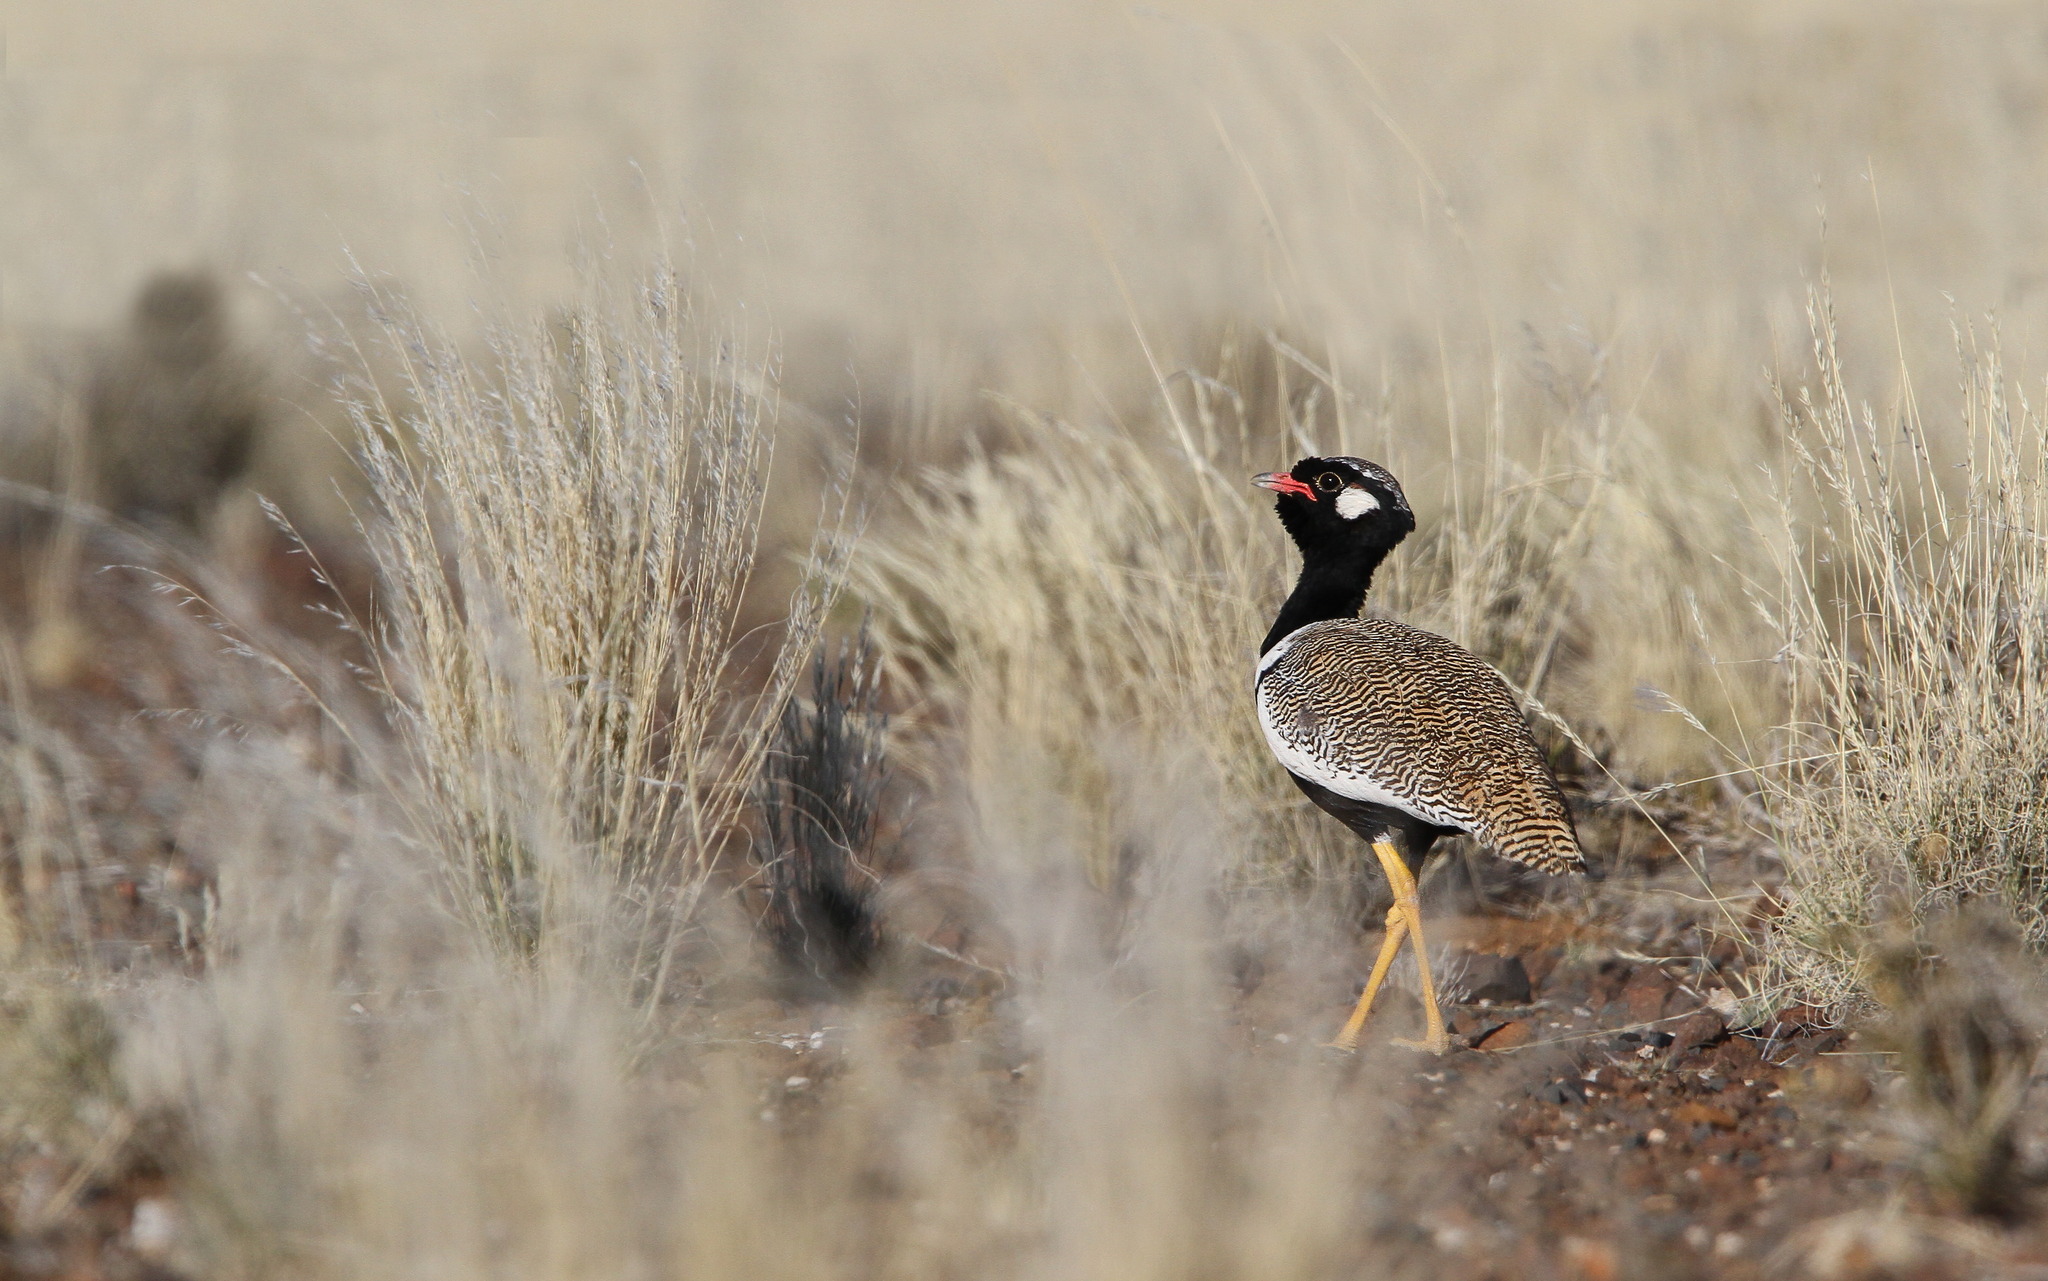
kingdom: Animalia
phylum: Chordata
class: Aves
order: Otidiformes
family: Otididae
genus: Afrotis
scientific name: Afrotis afraoides
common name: Northern black korhaan
